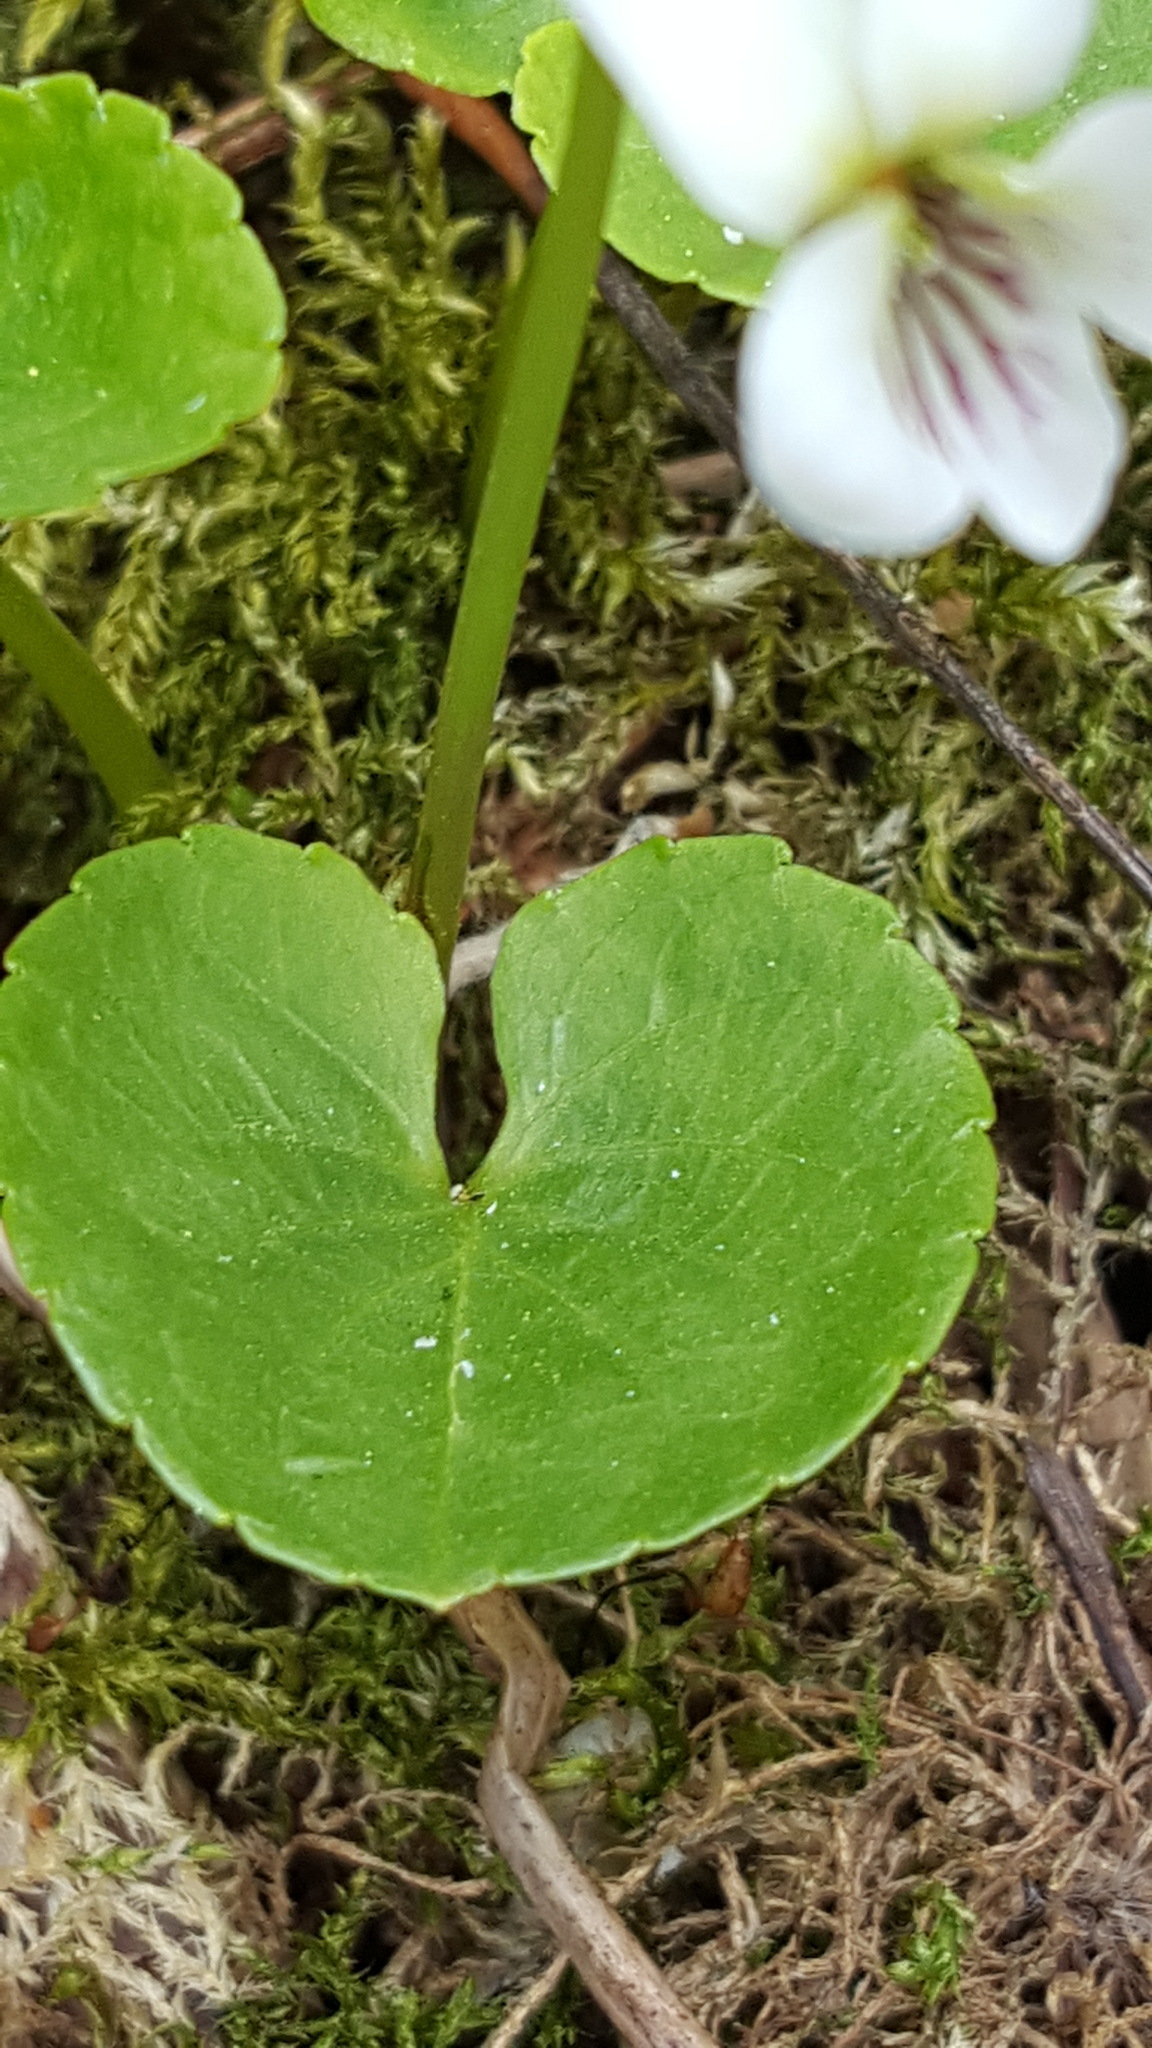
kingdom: Plantae
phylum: Tracheophyta
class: Magnoliopsida
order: Malpighiales
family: Violaceae
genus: Viola
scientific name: Viola blanda
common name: Sweet white violet
